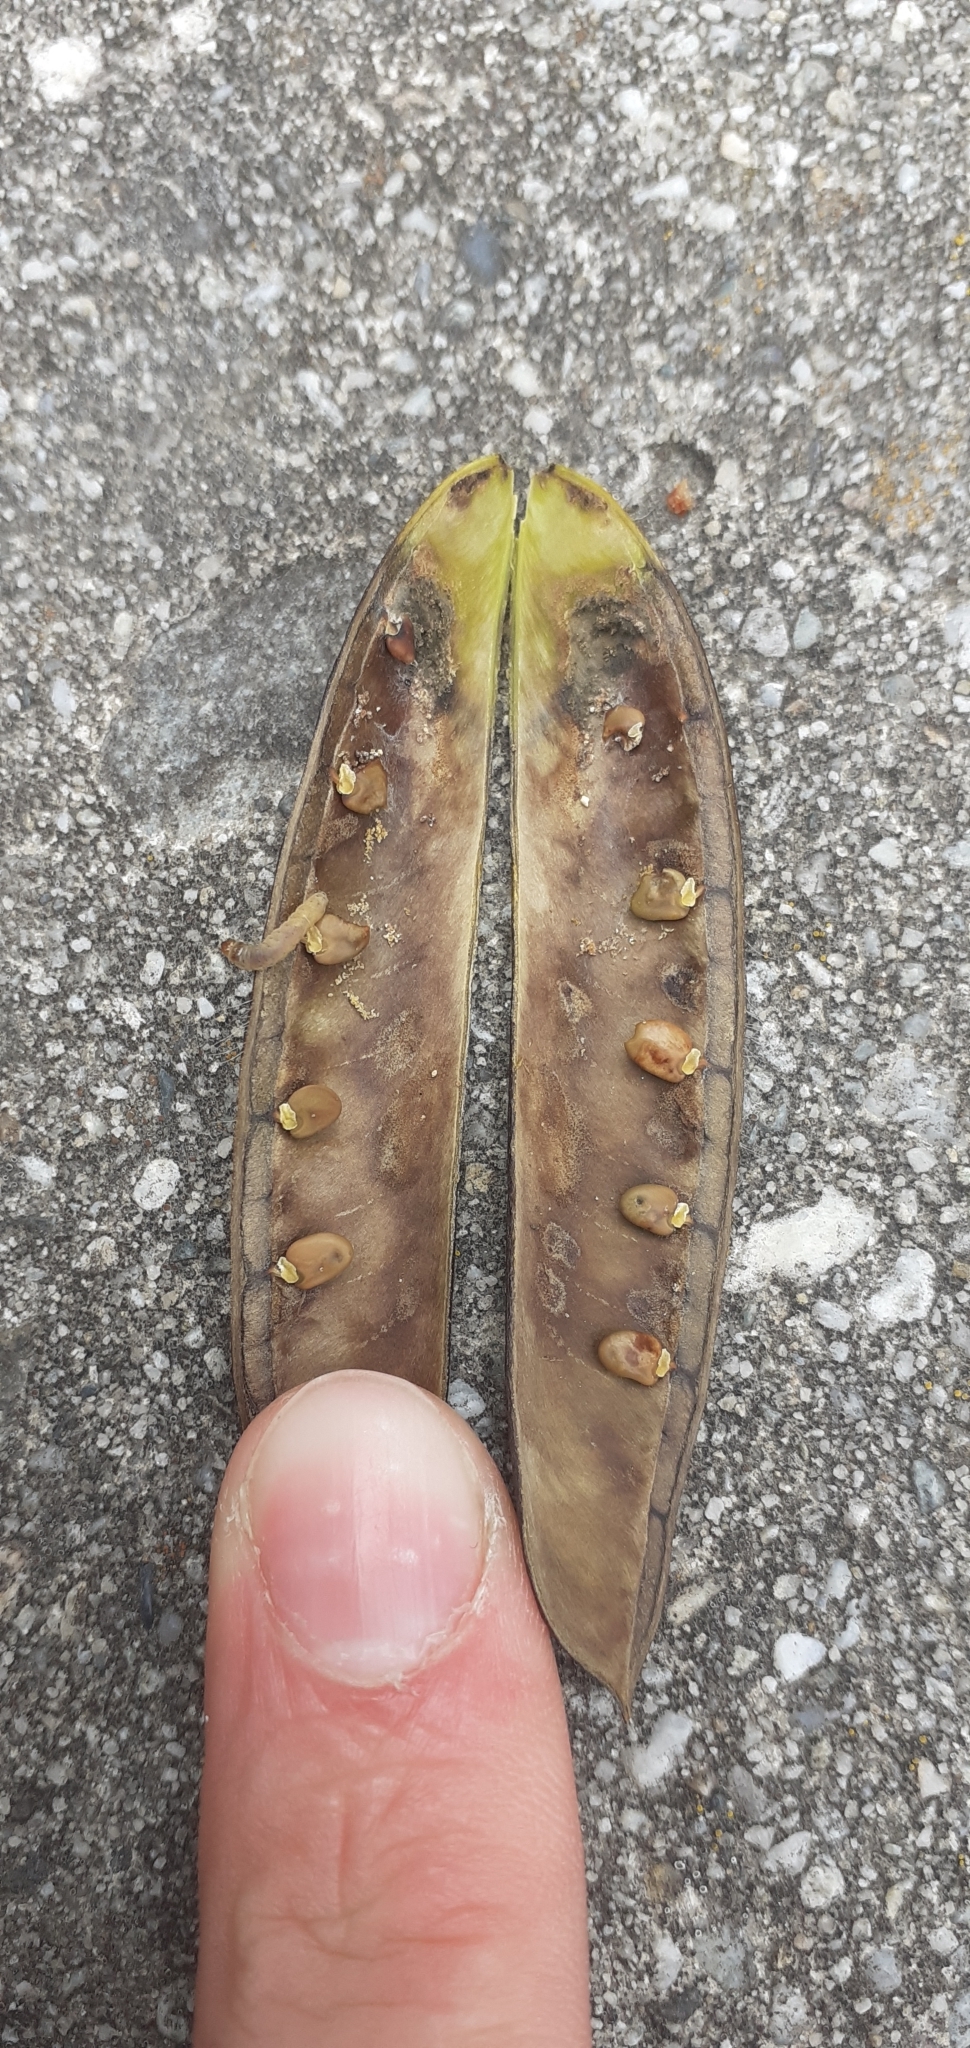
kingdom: Animalia
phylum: Arthropoda
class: Insecta
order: Lepidoptera
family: Tortricidae
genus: Cydia
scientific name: Cydia succedana
